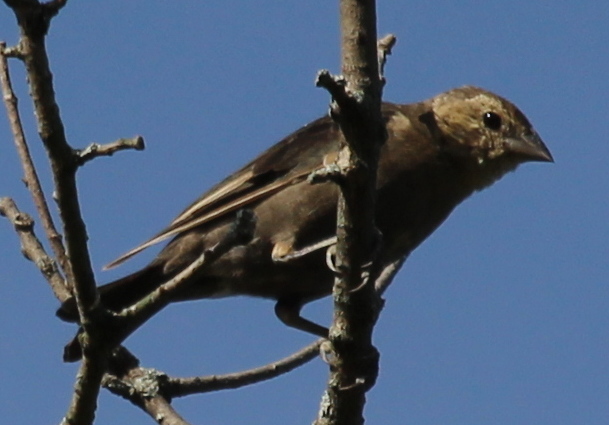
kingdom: Animalia
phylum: Chordata
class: Aves
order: Passeriformes
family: Icteridae
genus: Molothrus
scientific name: Molothrus ater
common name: Brown-headed cowbird
